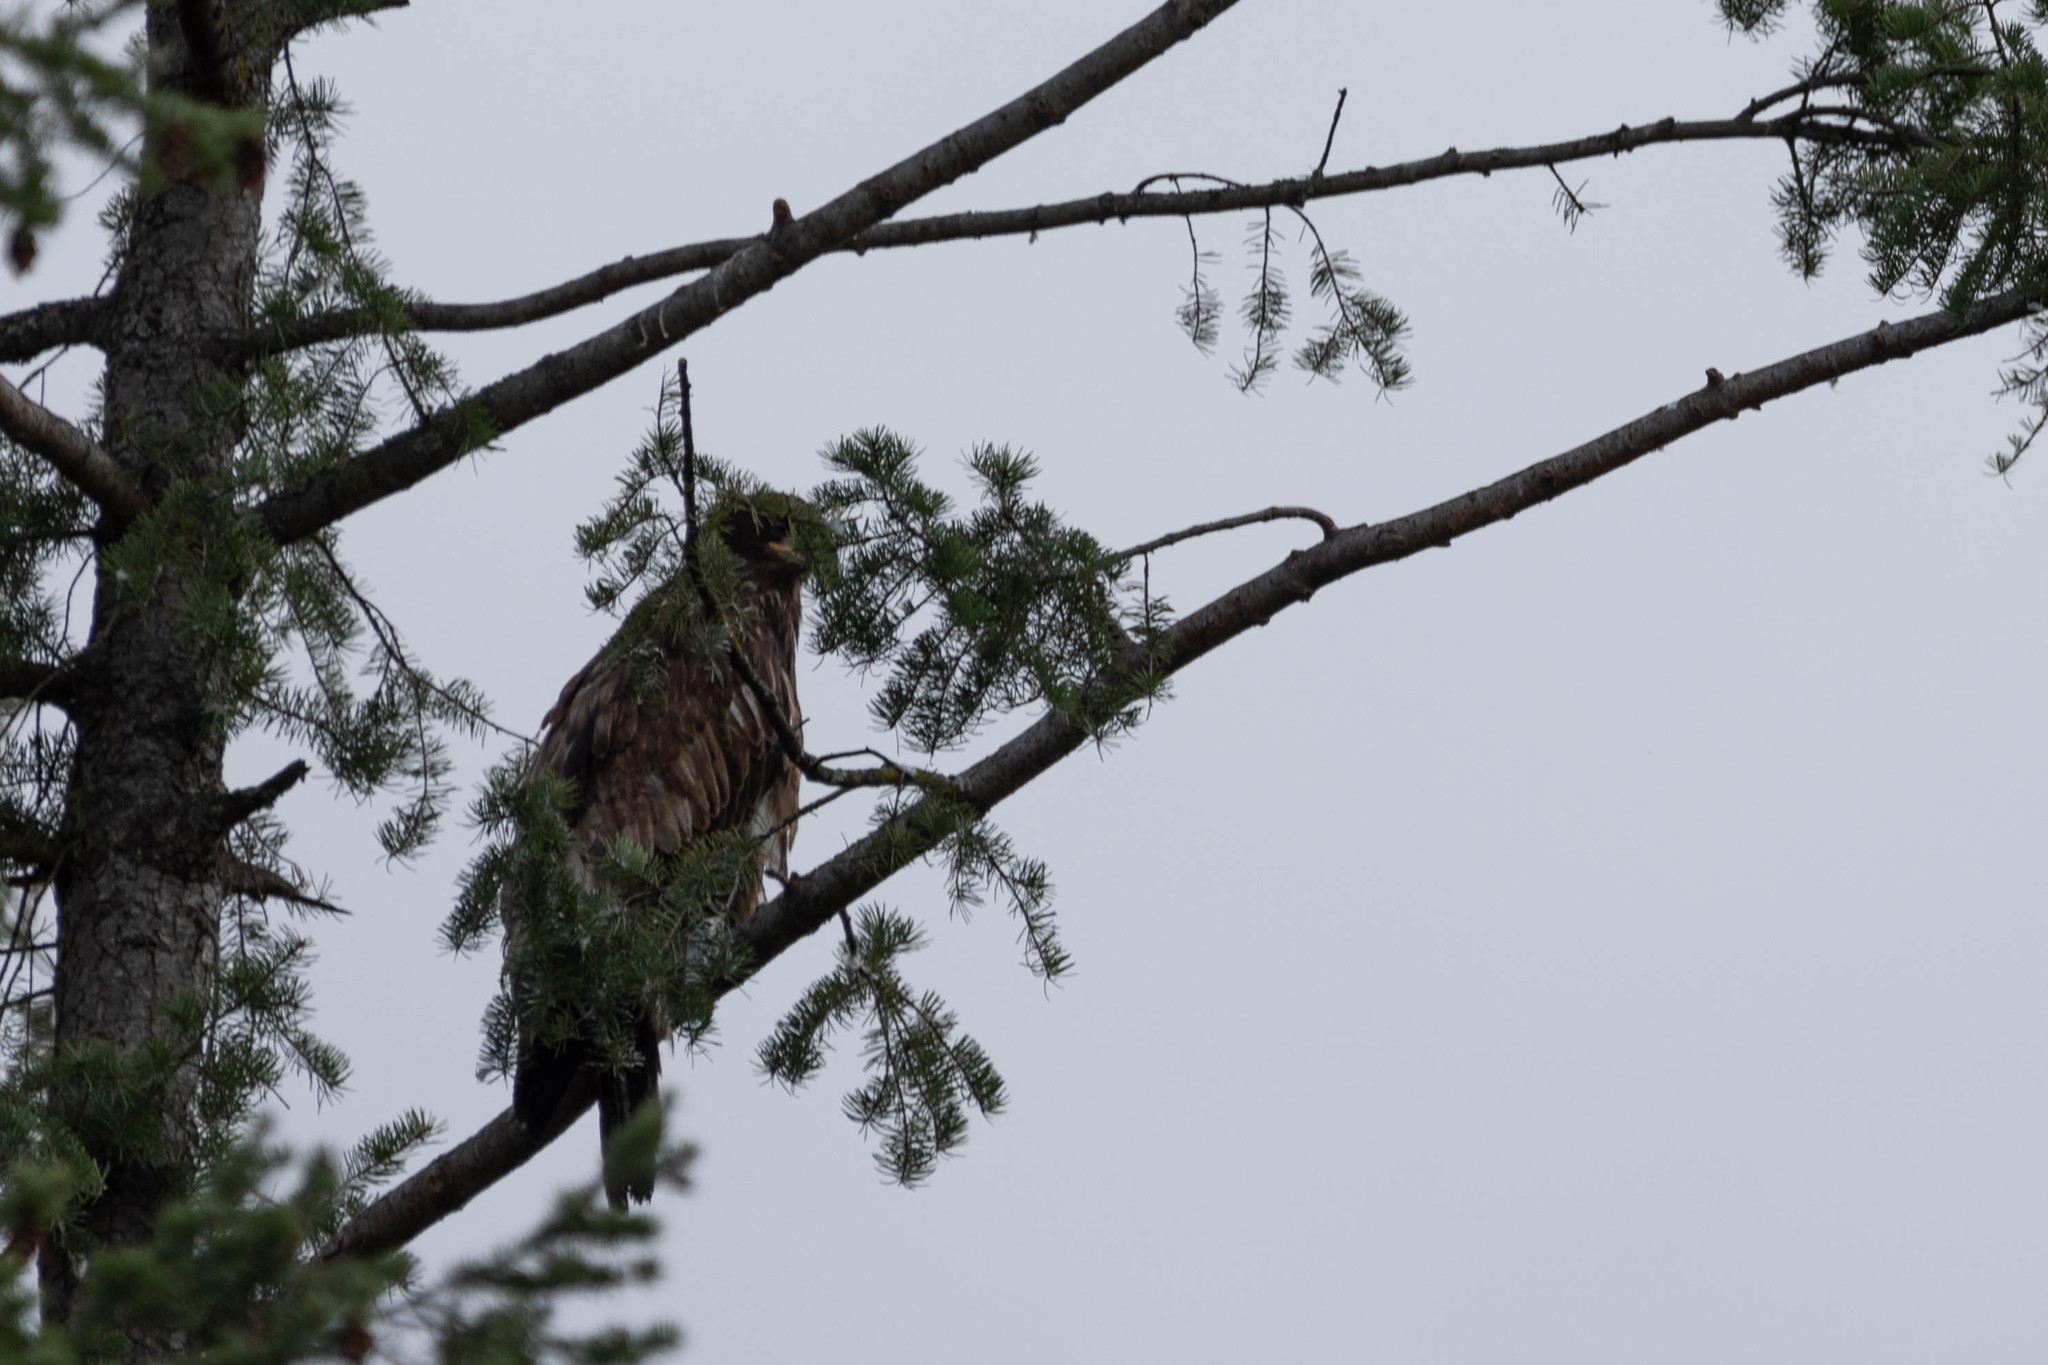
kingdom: Animalia
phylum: Chordata
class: Aves
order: Accipitriformes
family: Accipitridae
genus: Haliaeetus
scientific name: Haliaeetus leucocephalus
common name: Bald eagle
